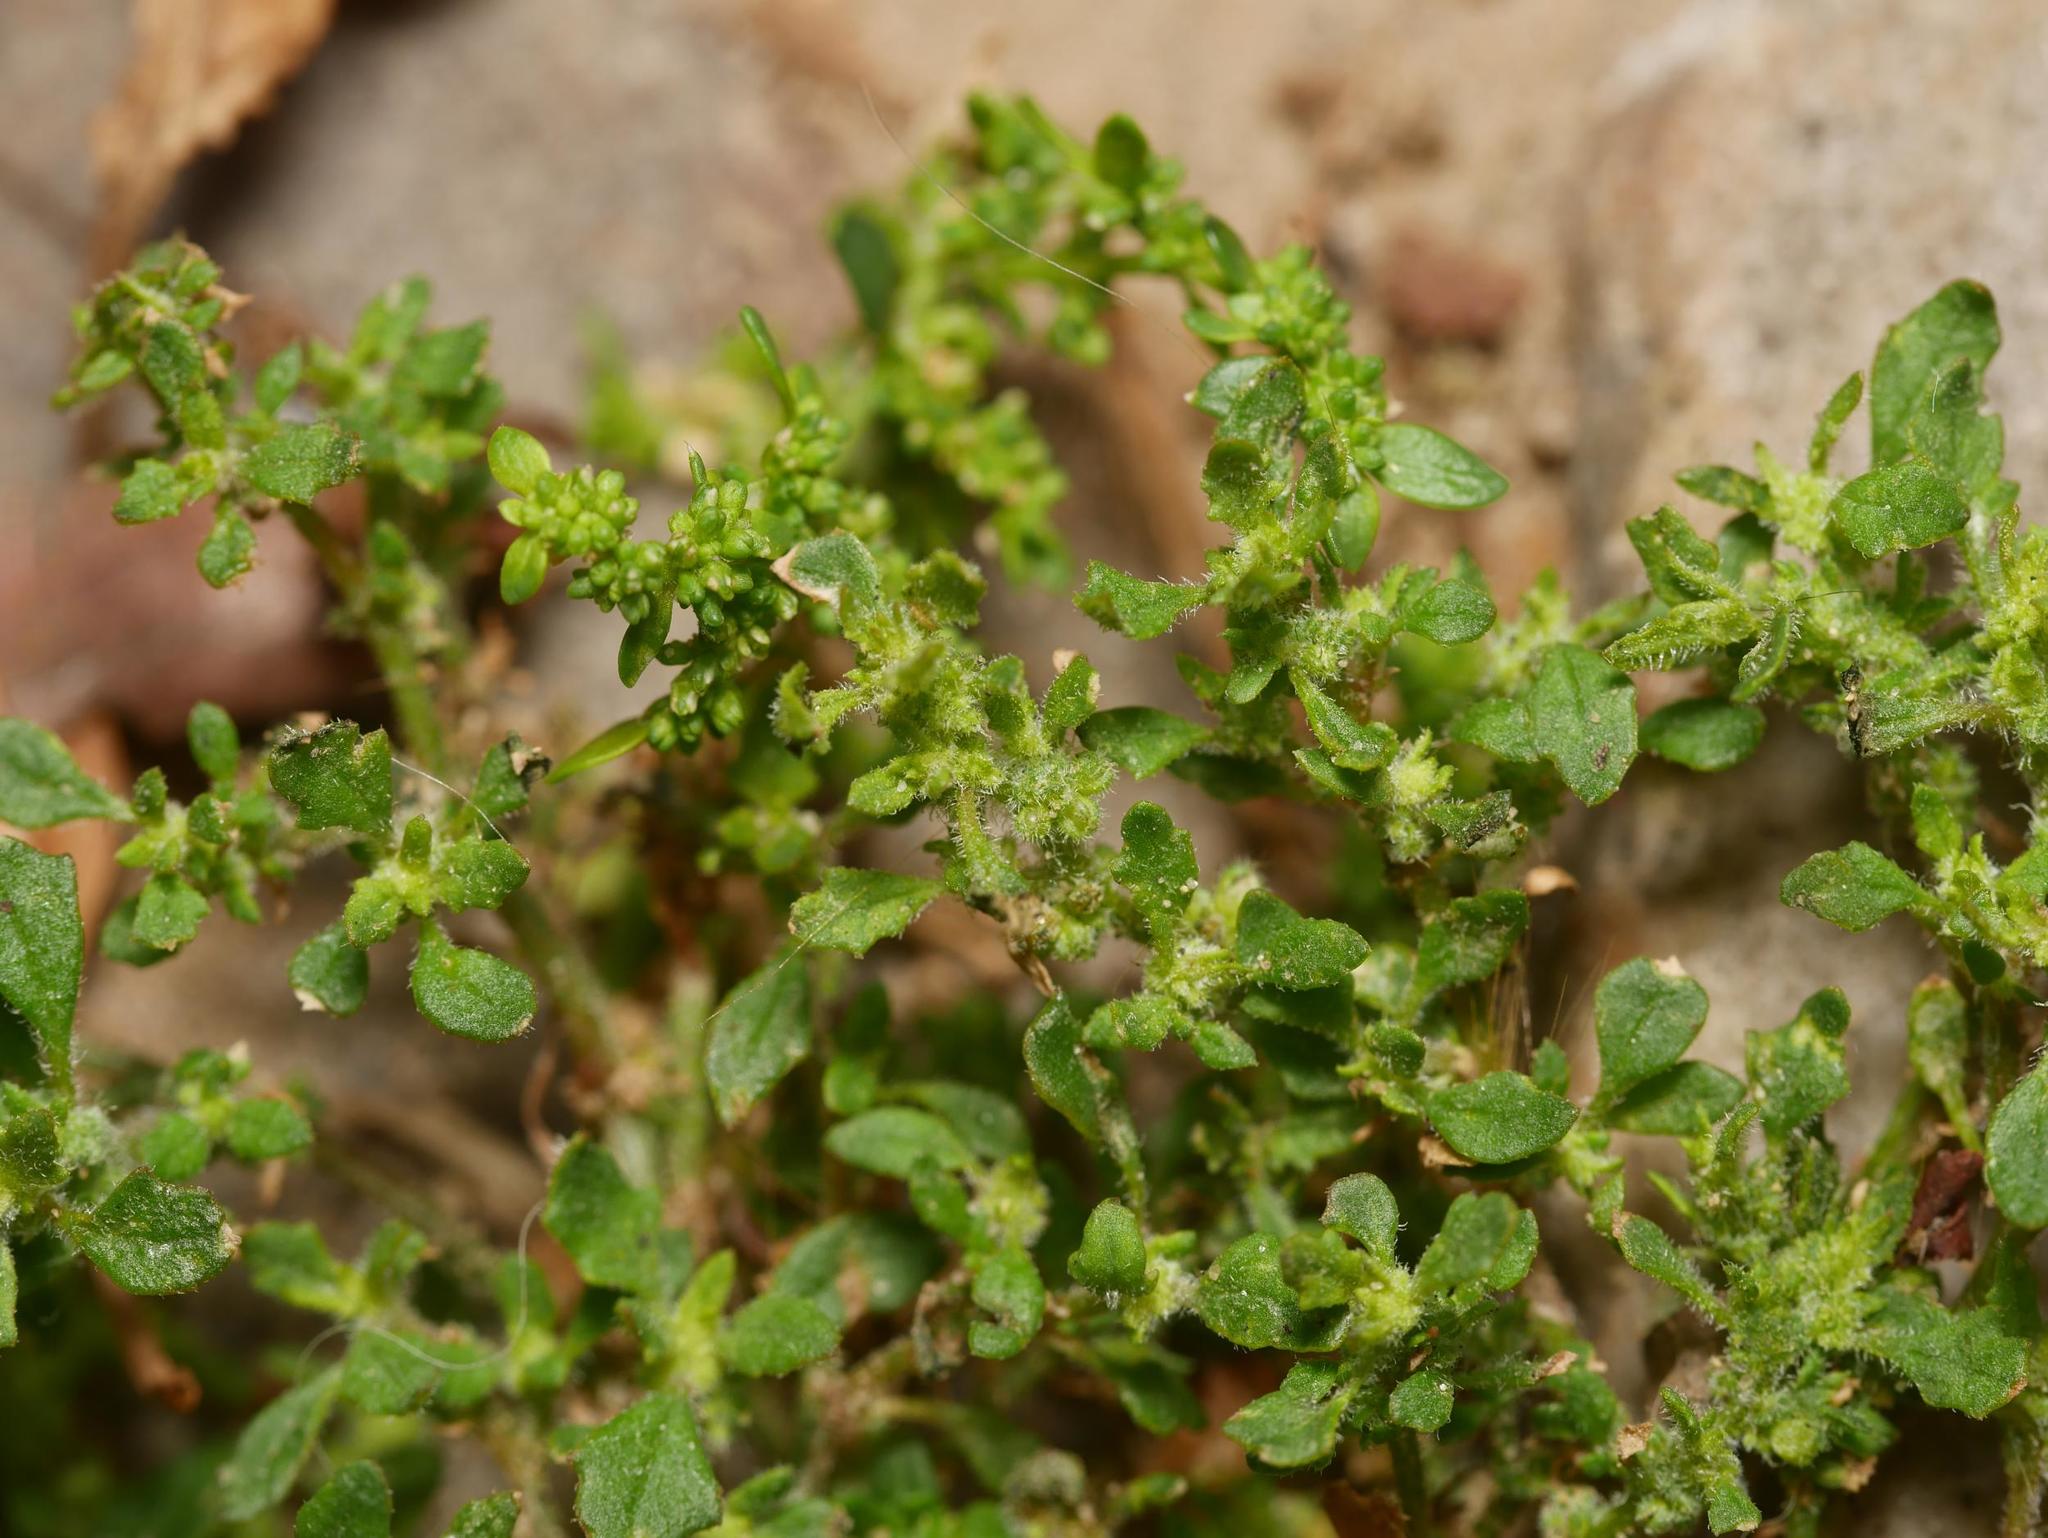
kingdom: Plantae
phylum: Tracheophyta
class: Magnoliopsida
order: Caryophyllales
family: Amaranthaceae
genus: Dysphania
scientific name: Dysphania pumilio
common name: Clammy goosefoot
